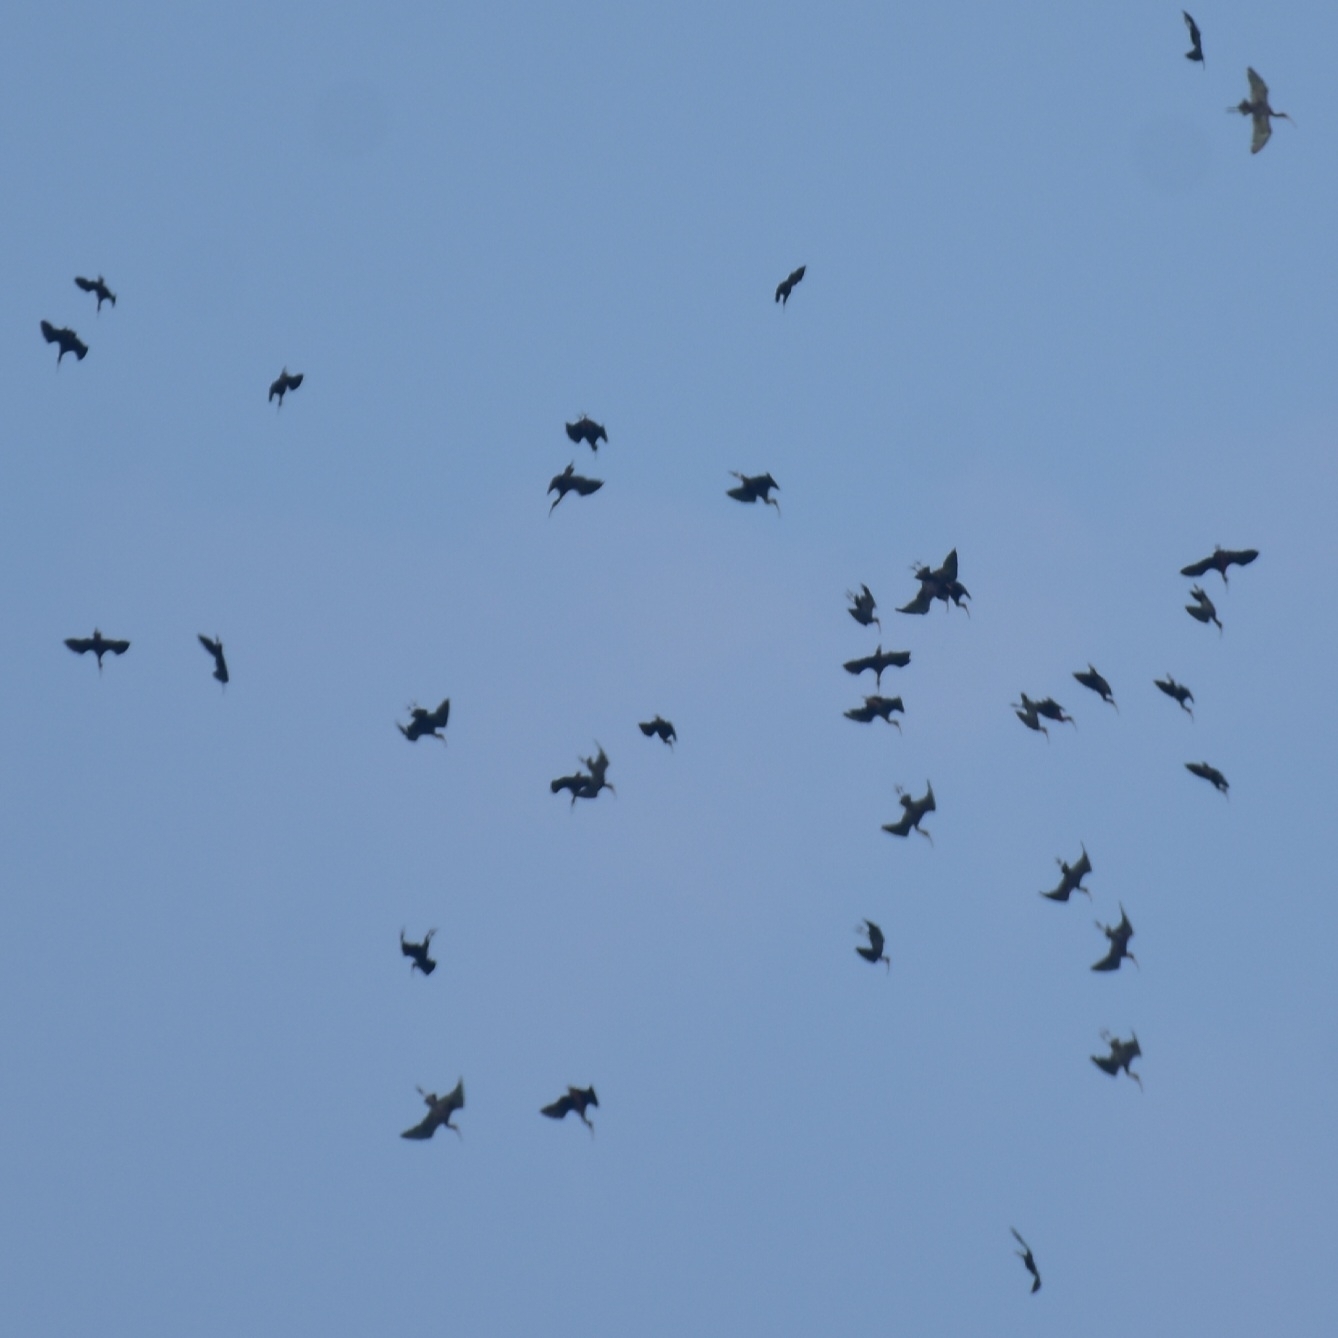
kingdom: Animalia
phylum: Chordata
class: Aves
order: Pelecaniformes
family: Threskiornithidae
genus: Plegadis
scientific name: Plegadis falcinellus
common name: Glossy ibis
